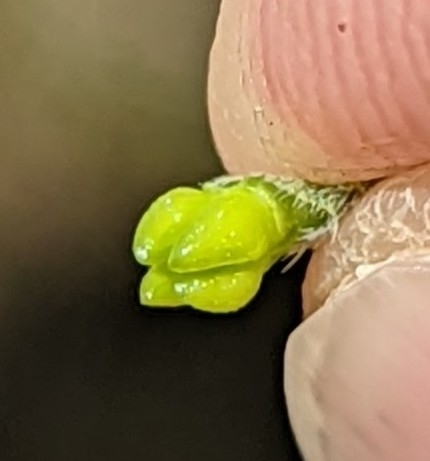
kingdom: Plantae
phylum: Tracheophyta
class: Magnoliopsida
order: Boraginales
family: Boraginaceae
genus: Buglossoides
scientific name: Buglossoides arvensis
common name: Corn gromwell
